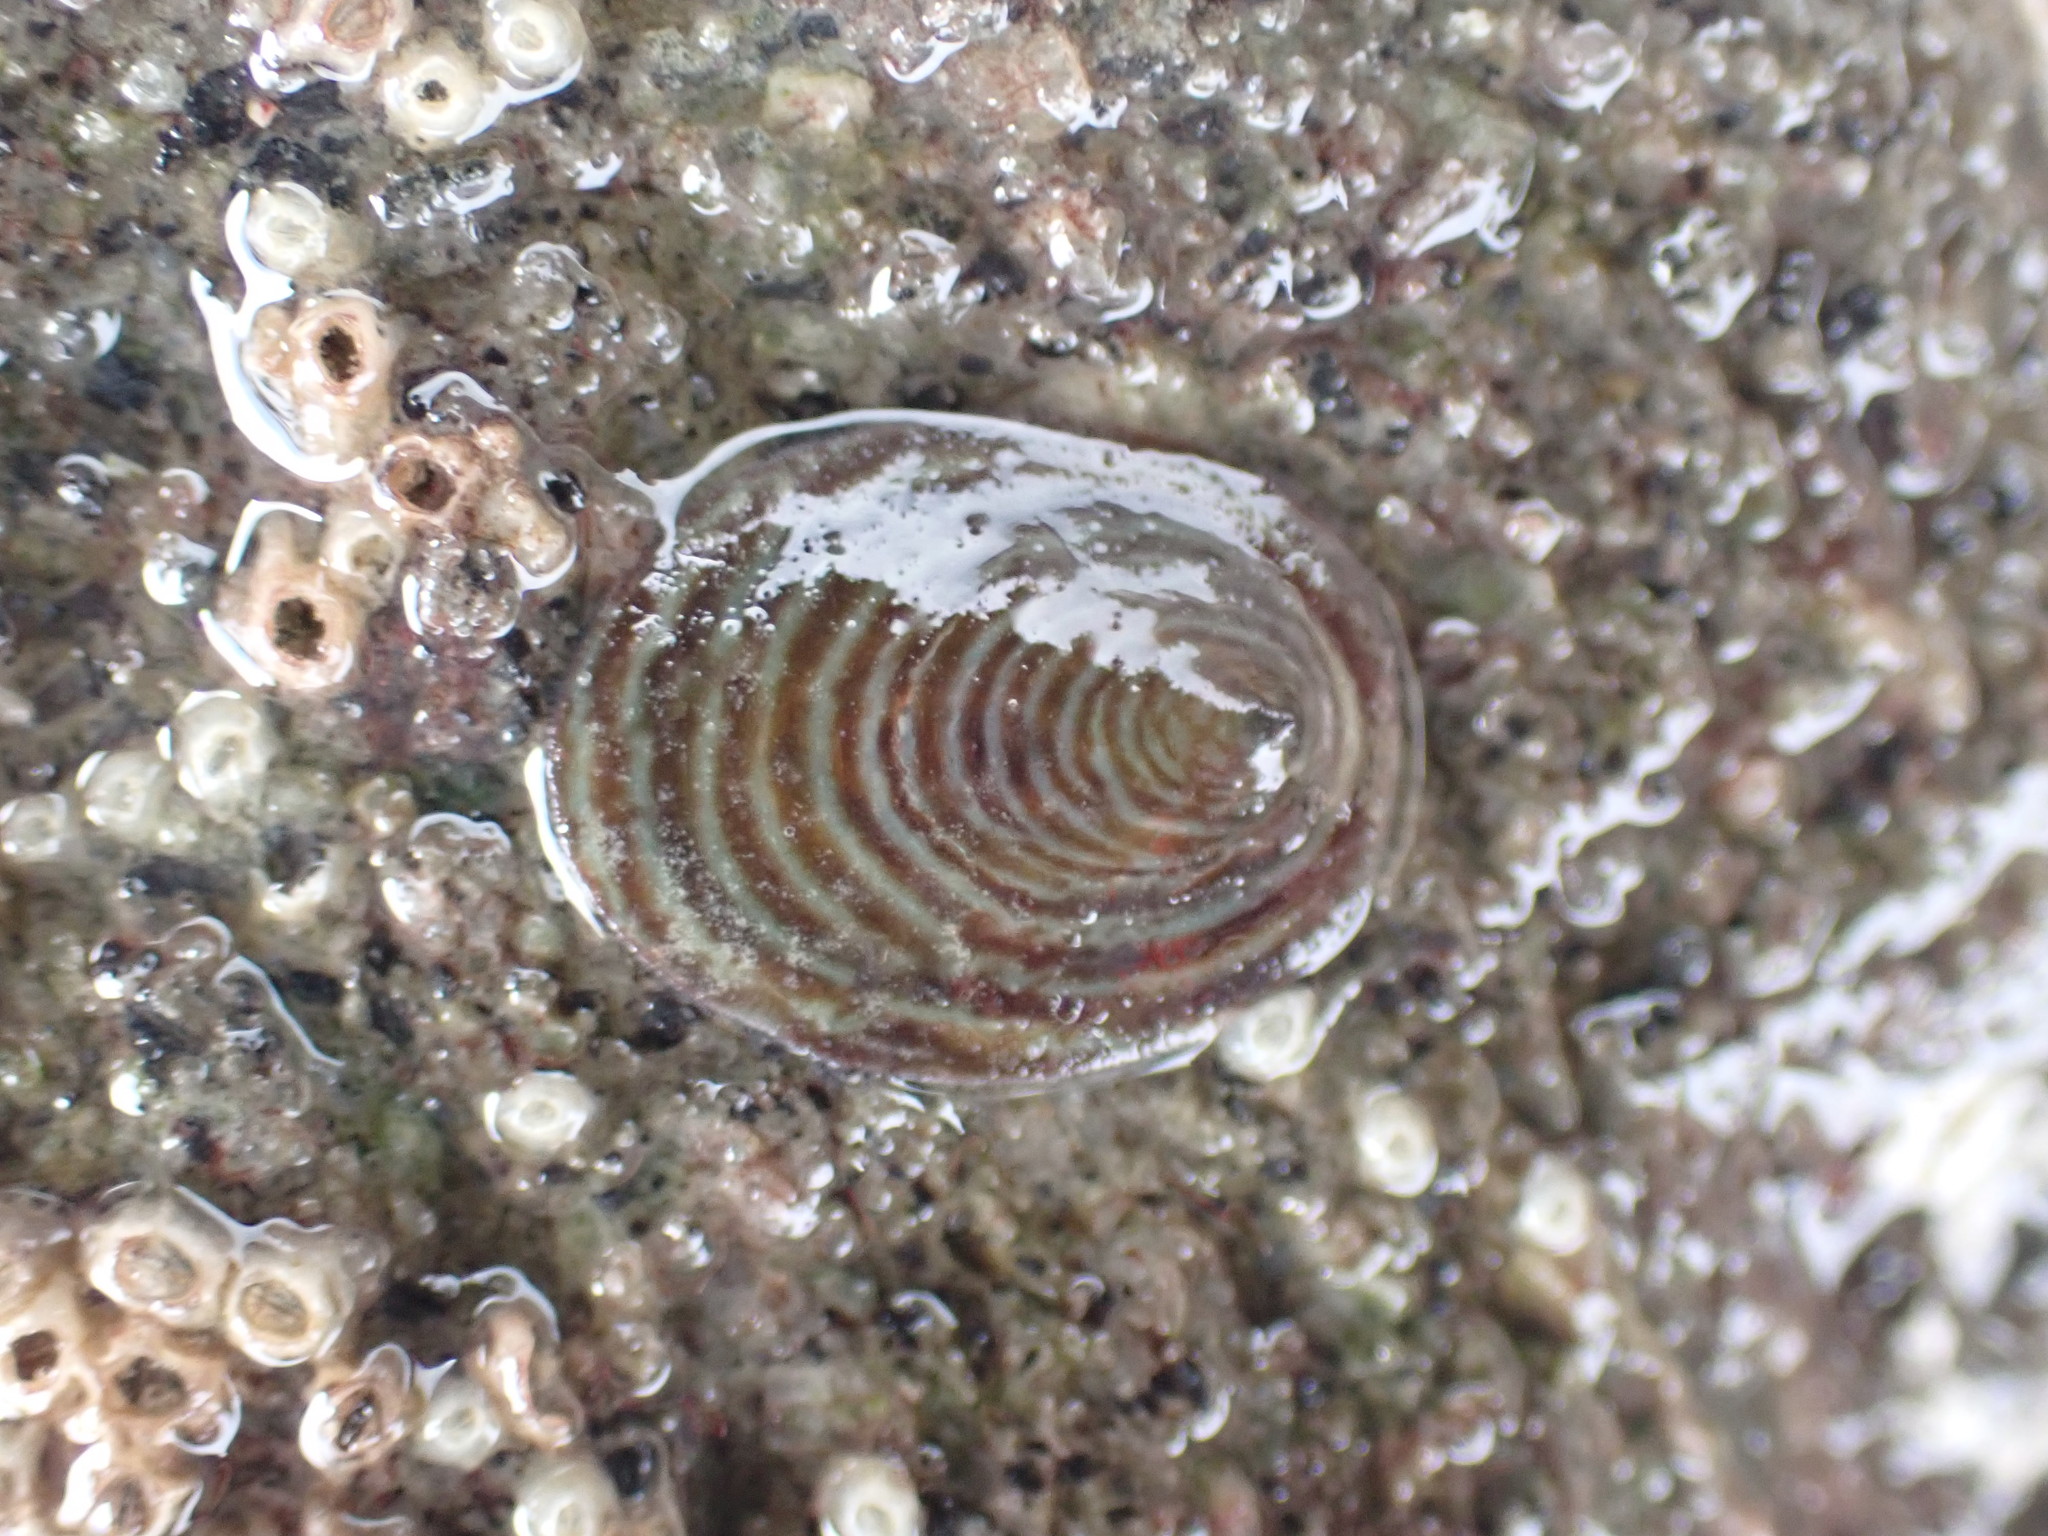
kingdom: Animalia
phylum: Mollusca
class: Gastropoda
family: Lottiidae
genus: Atalacmea
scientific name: Atalacmea fragilis
